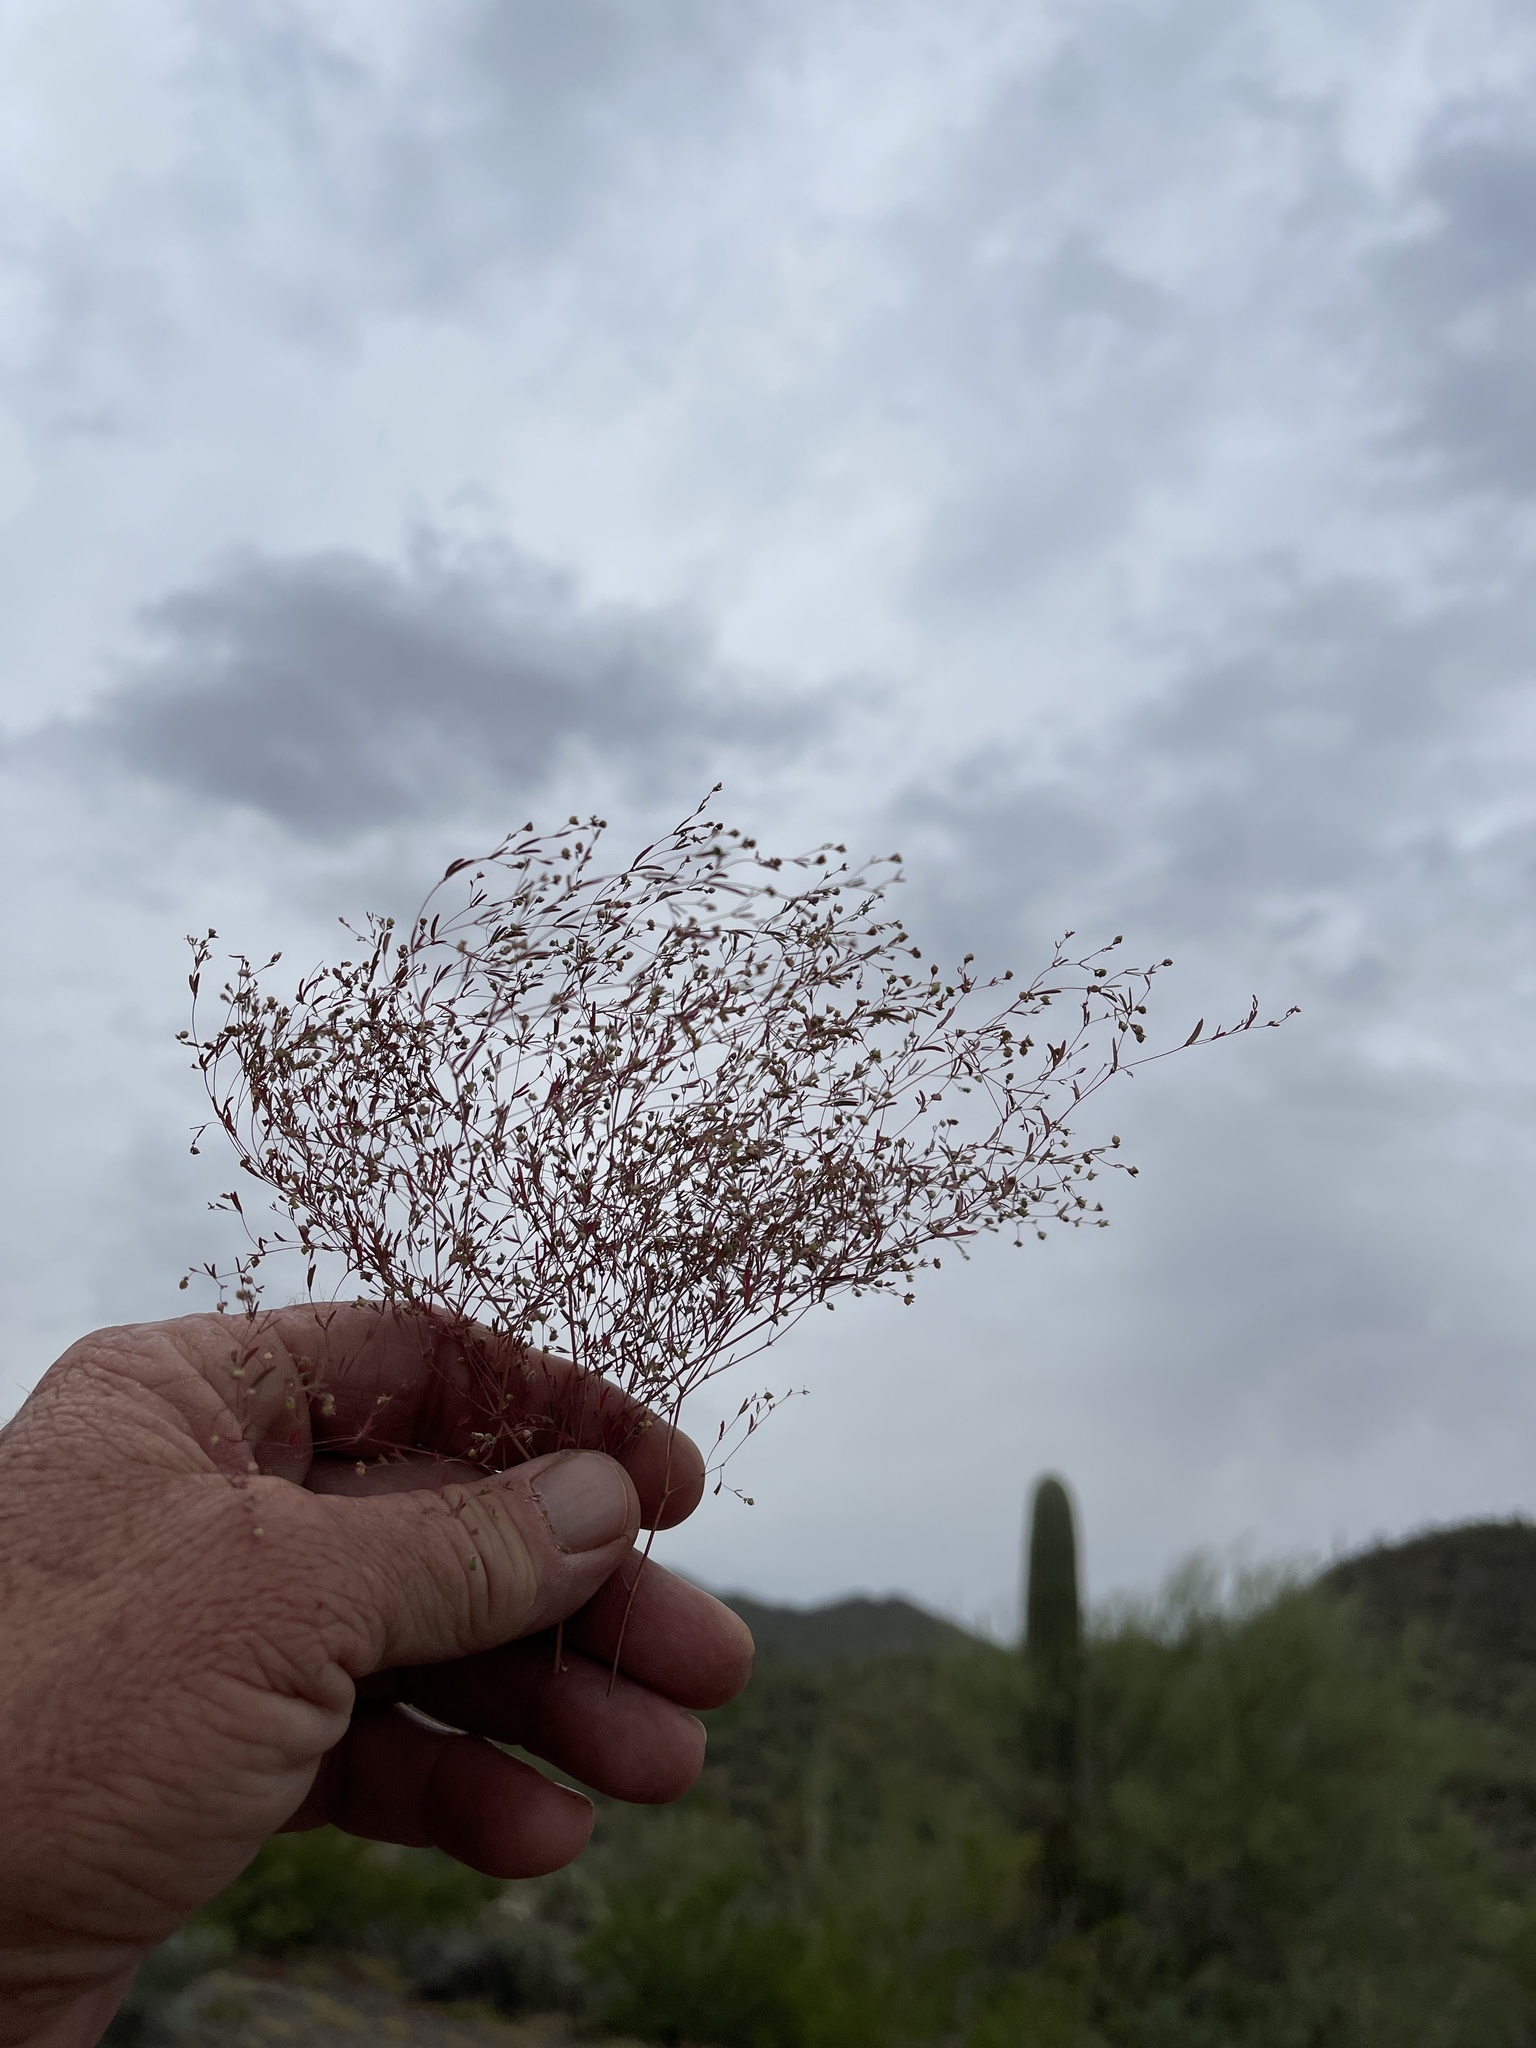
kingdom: Plantae
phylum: Tracheophyta
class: Magnoliopsida
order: Malpighiales
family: Euphorbiaceae
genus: Euphorbia
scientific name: Euphorbia gracillima
